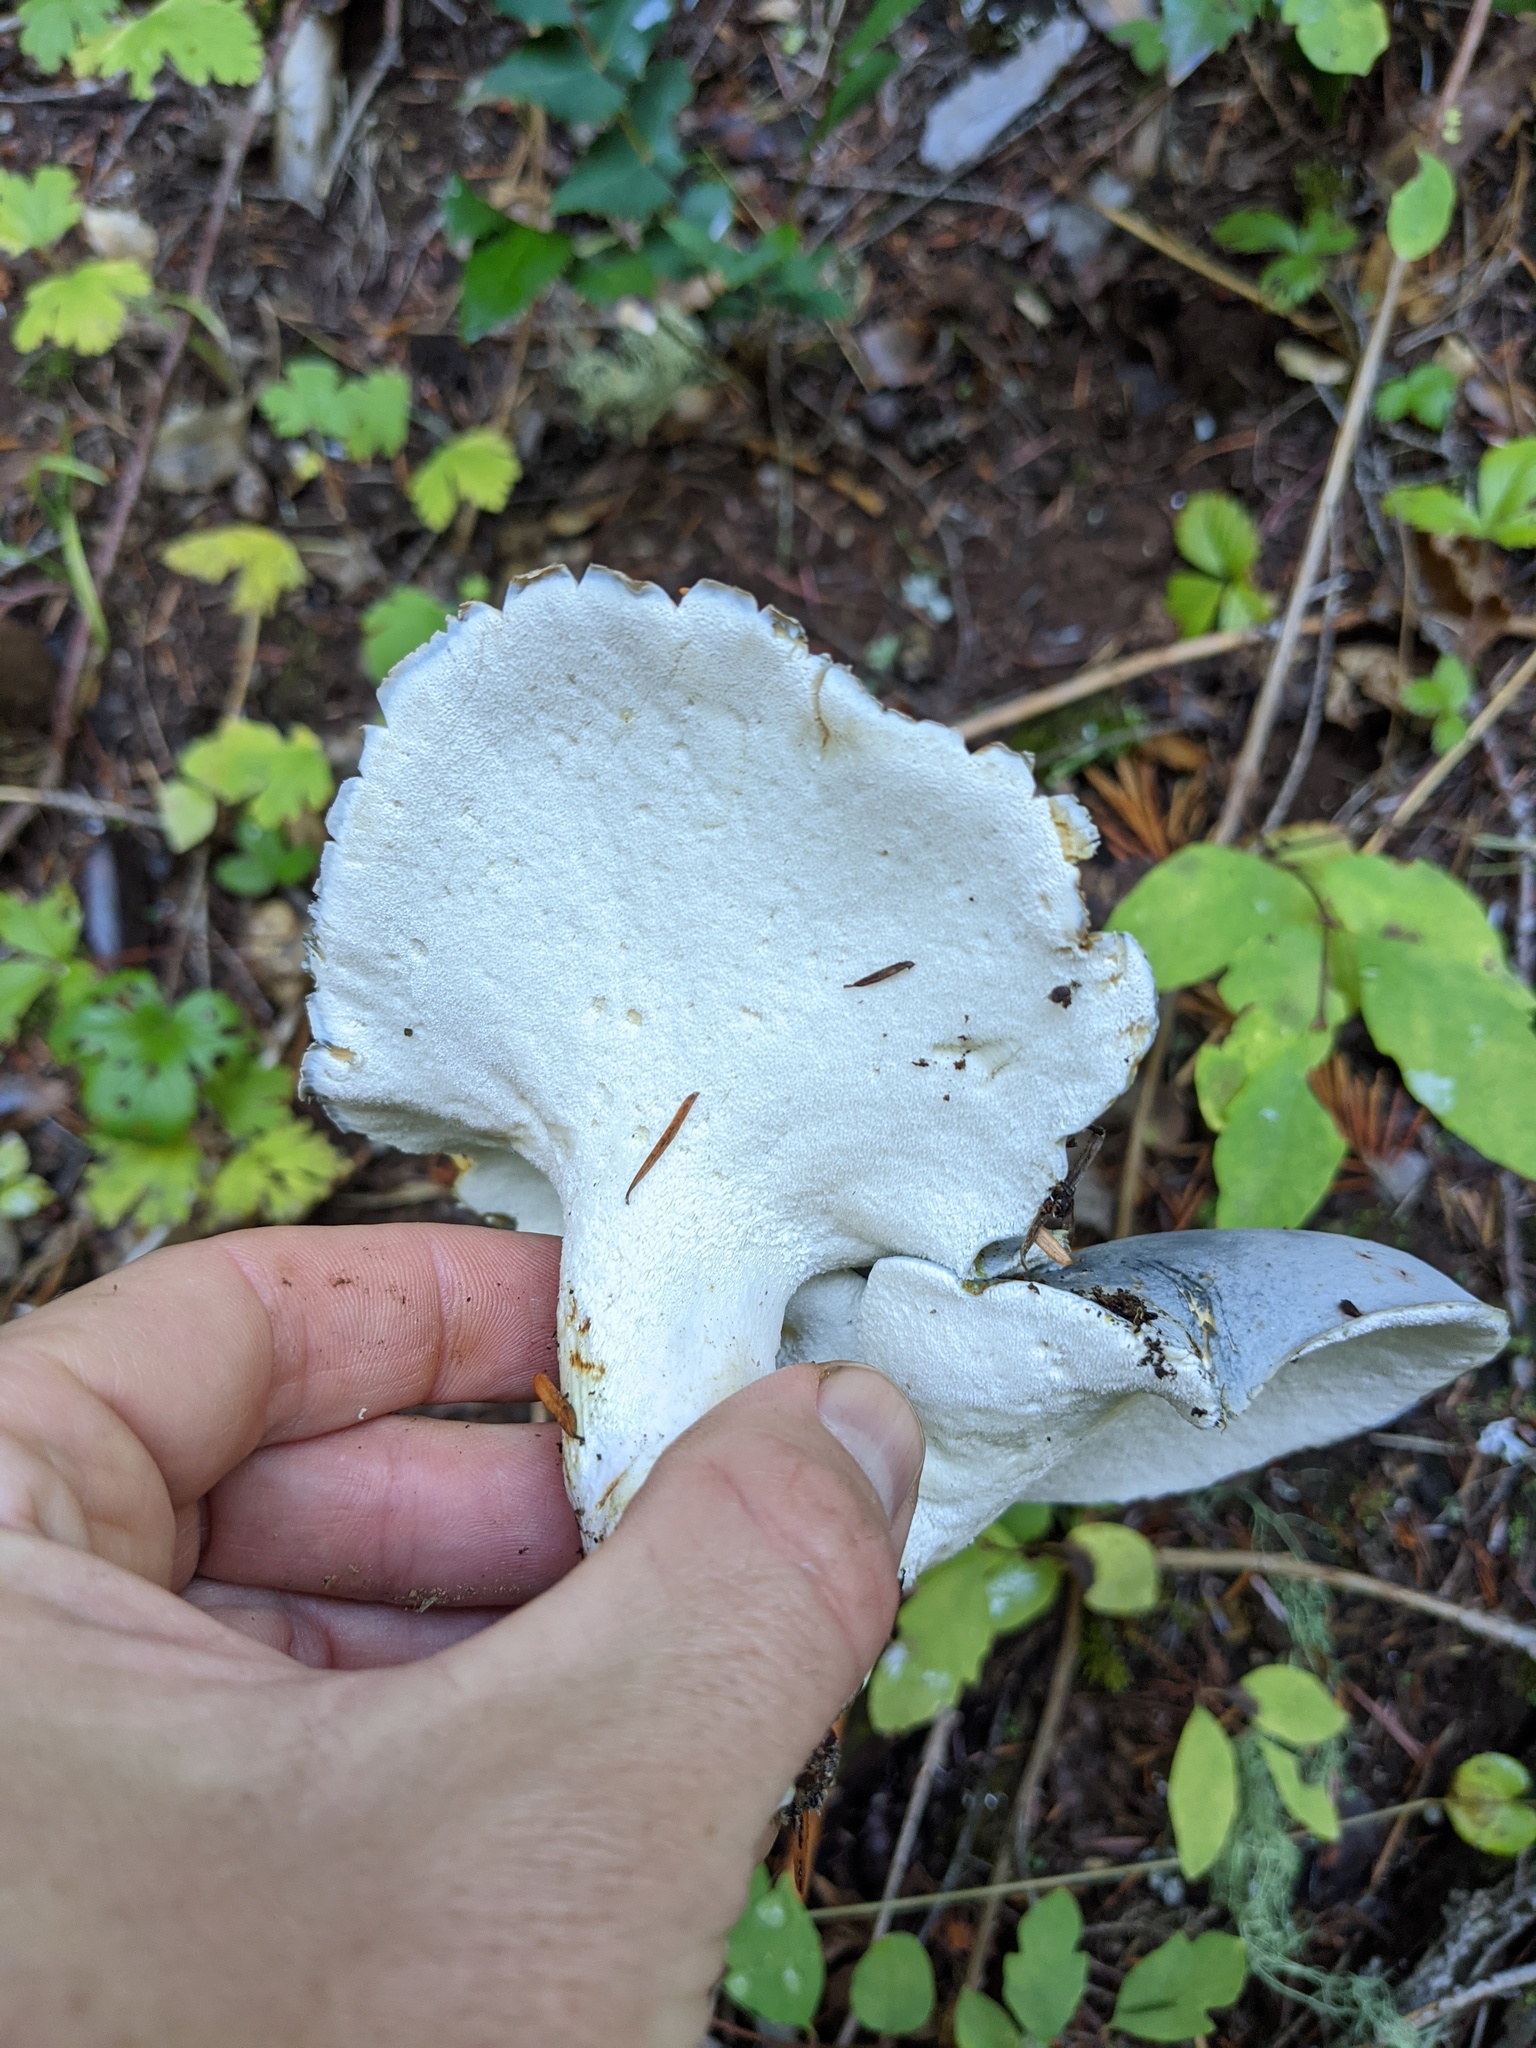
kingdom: Fungi
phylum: Basidiomycota
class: Agaricomycetes
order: Russulales
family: Albatrellaceae
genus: Albatrellopsis
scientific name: Albatrellopsis flettii
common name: Blue polypore
